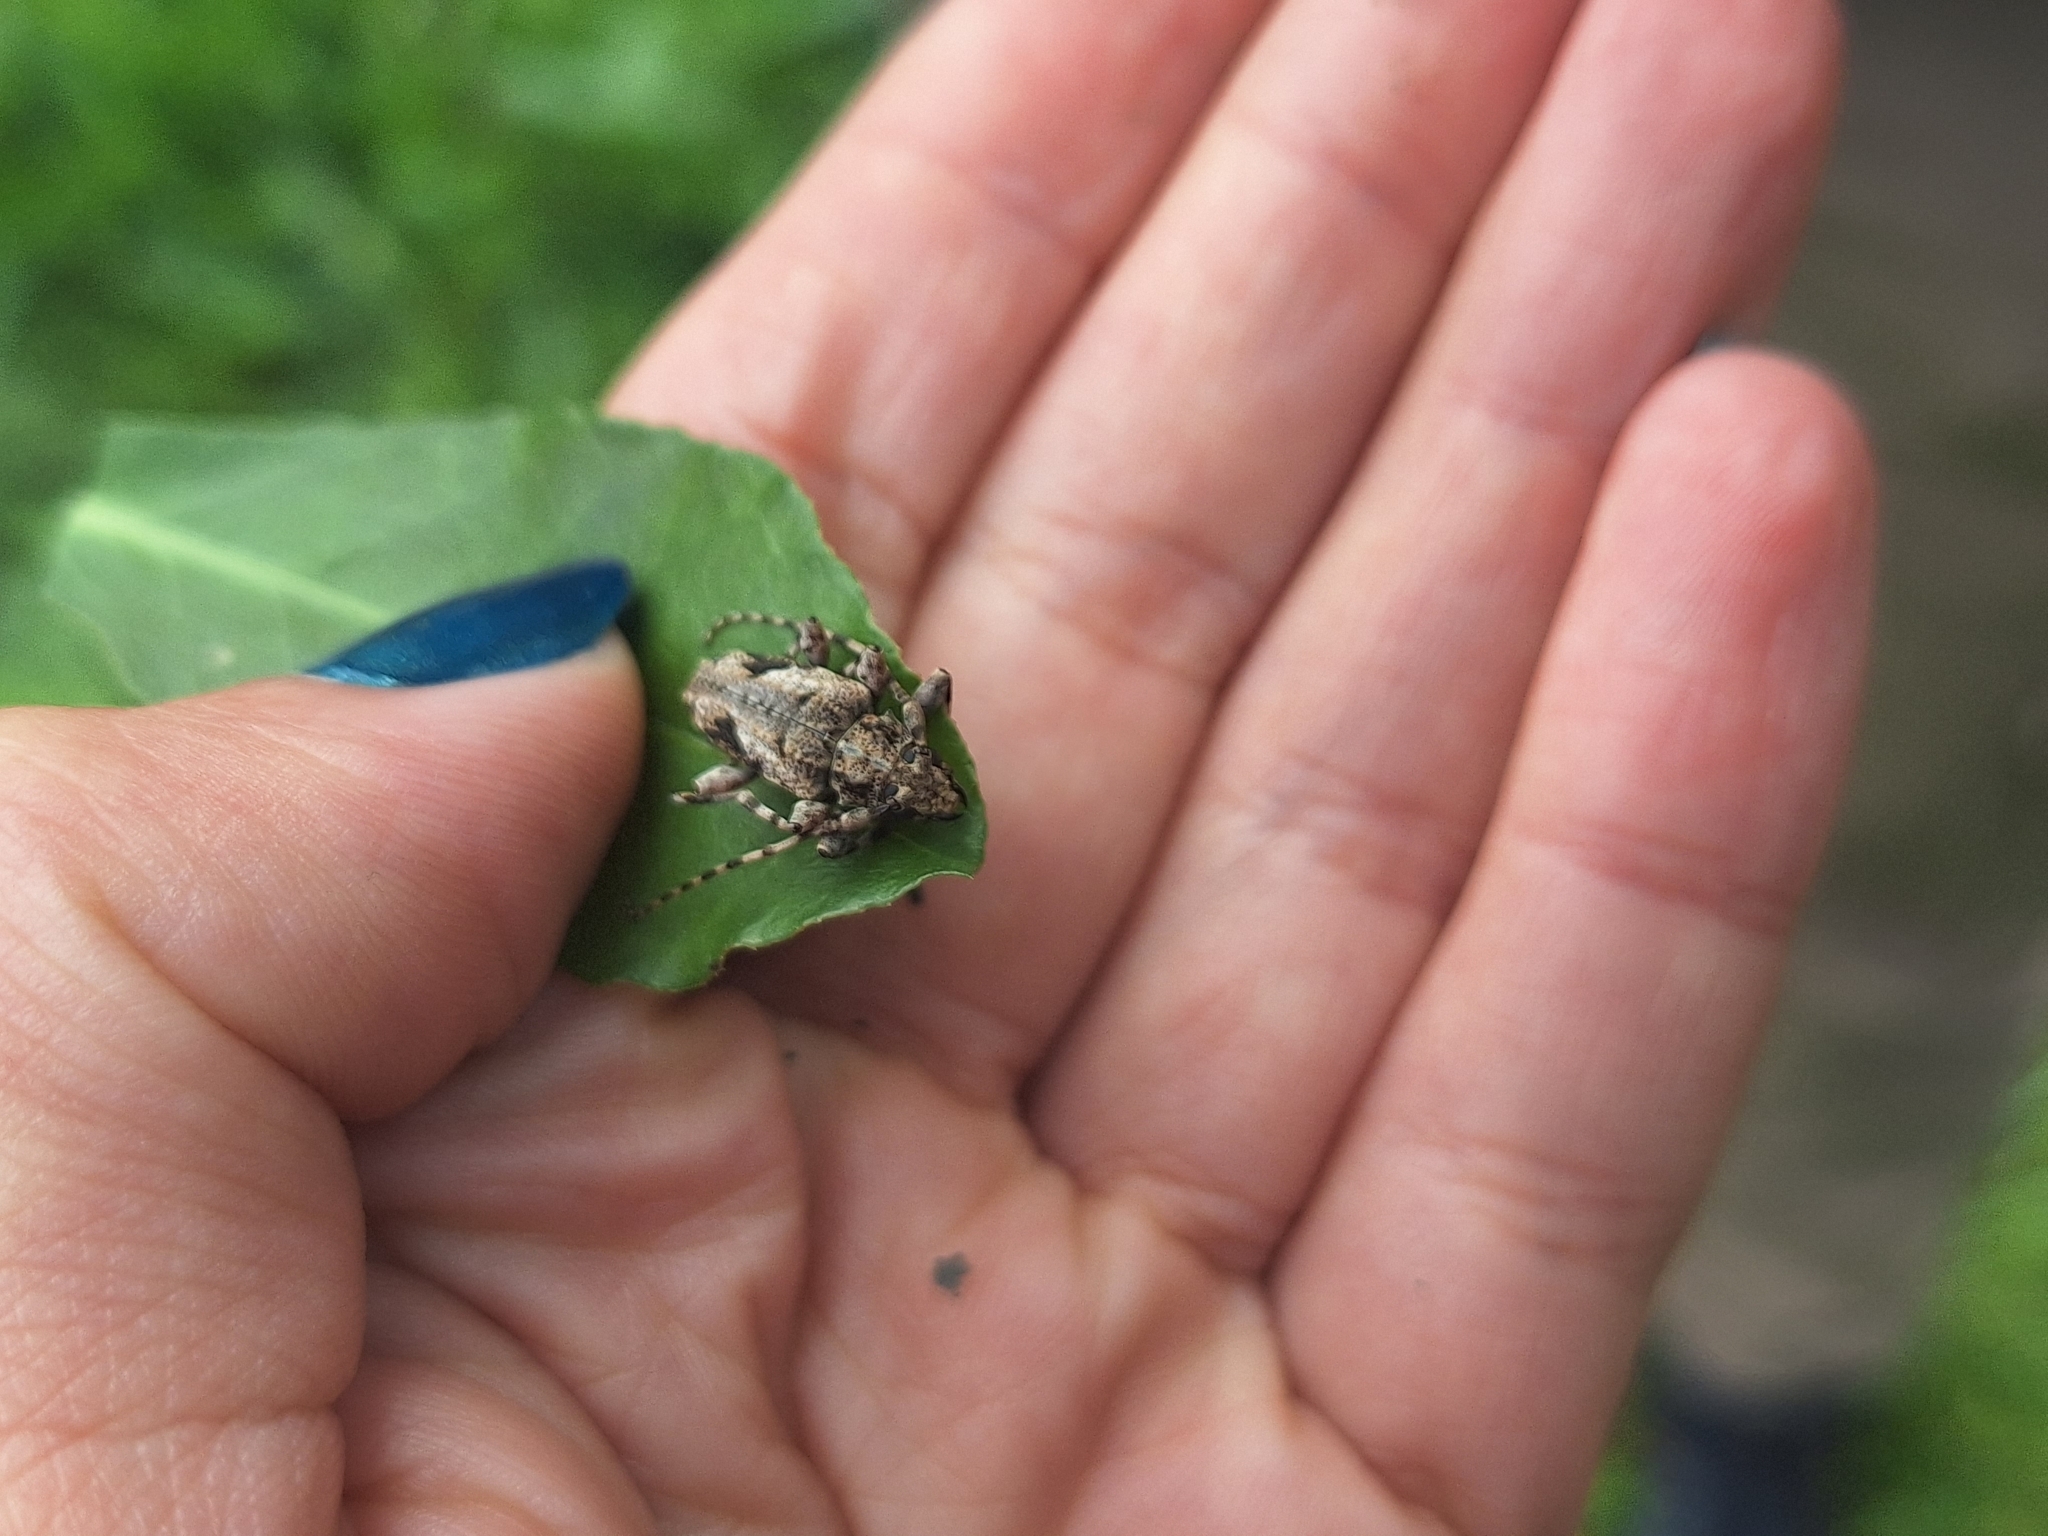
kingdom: Animalia
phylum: Arthropoda
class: Insecta
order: Coleoptera
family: Cerambycidae
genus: Psapharochrus
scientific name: Psapharochrus jaspideus
